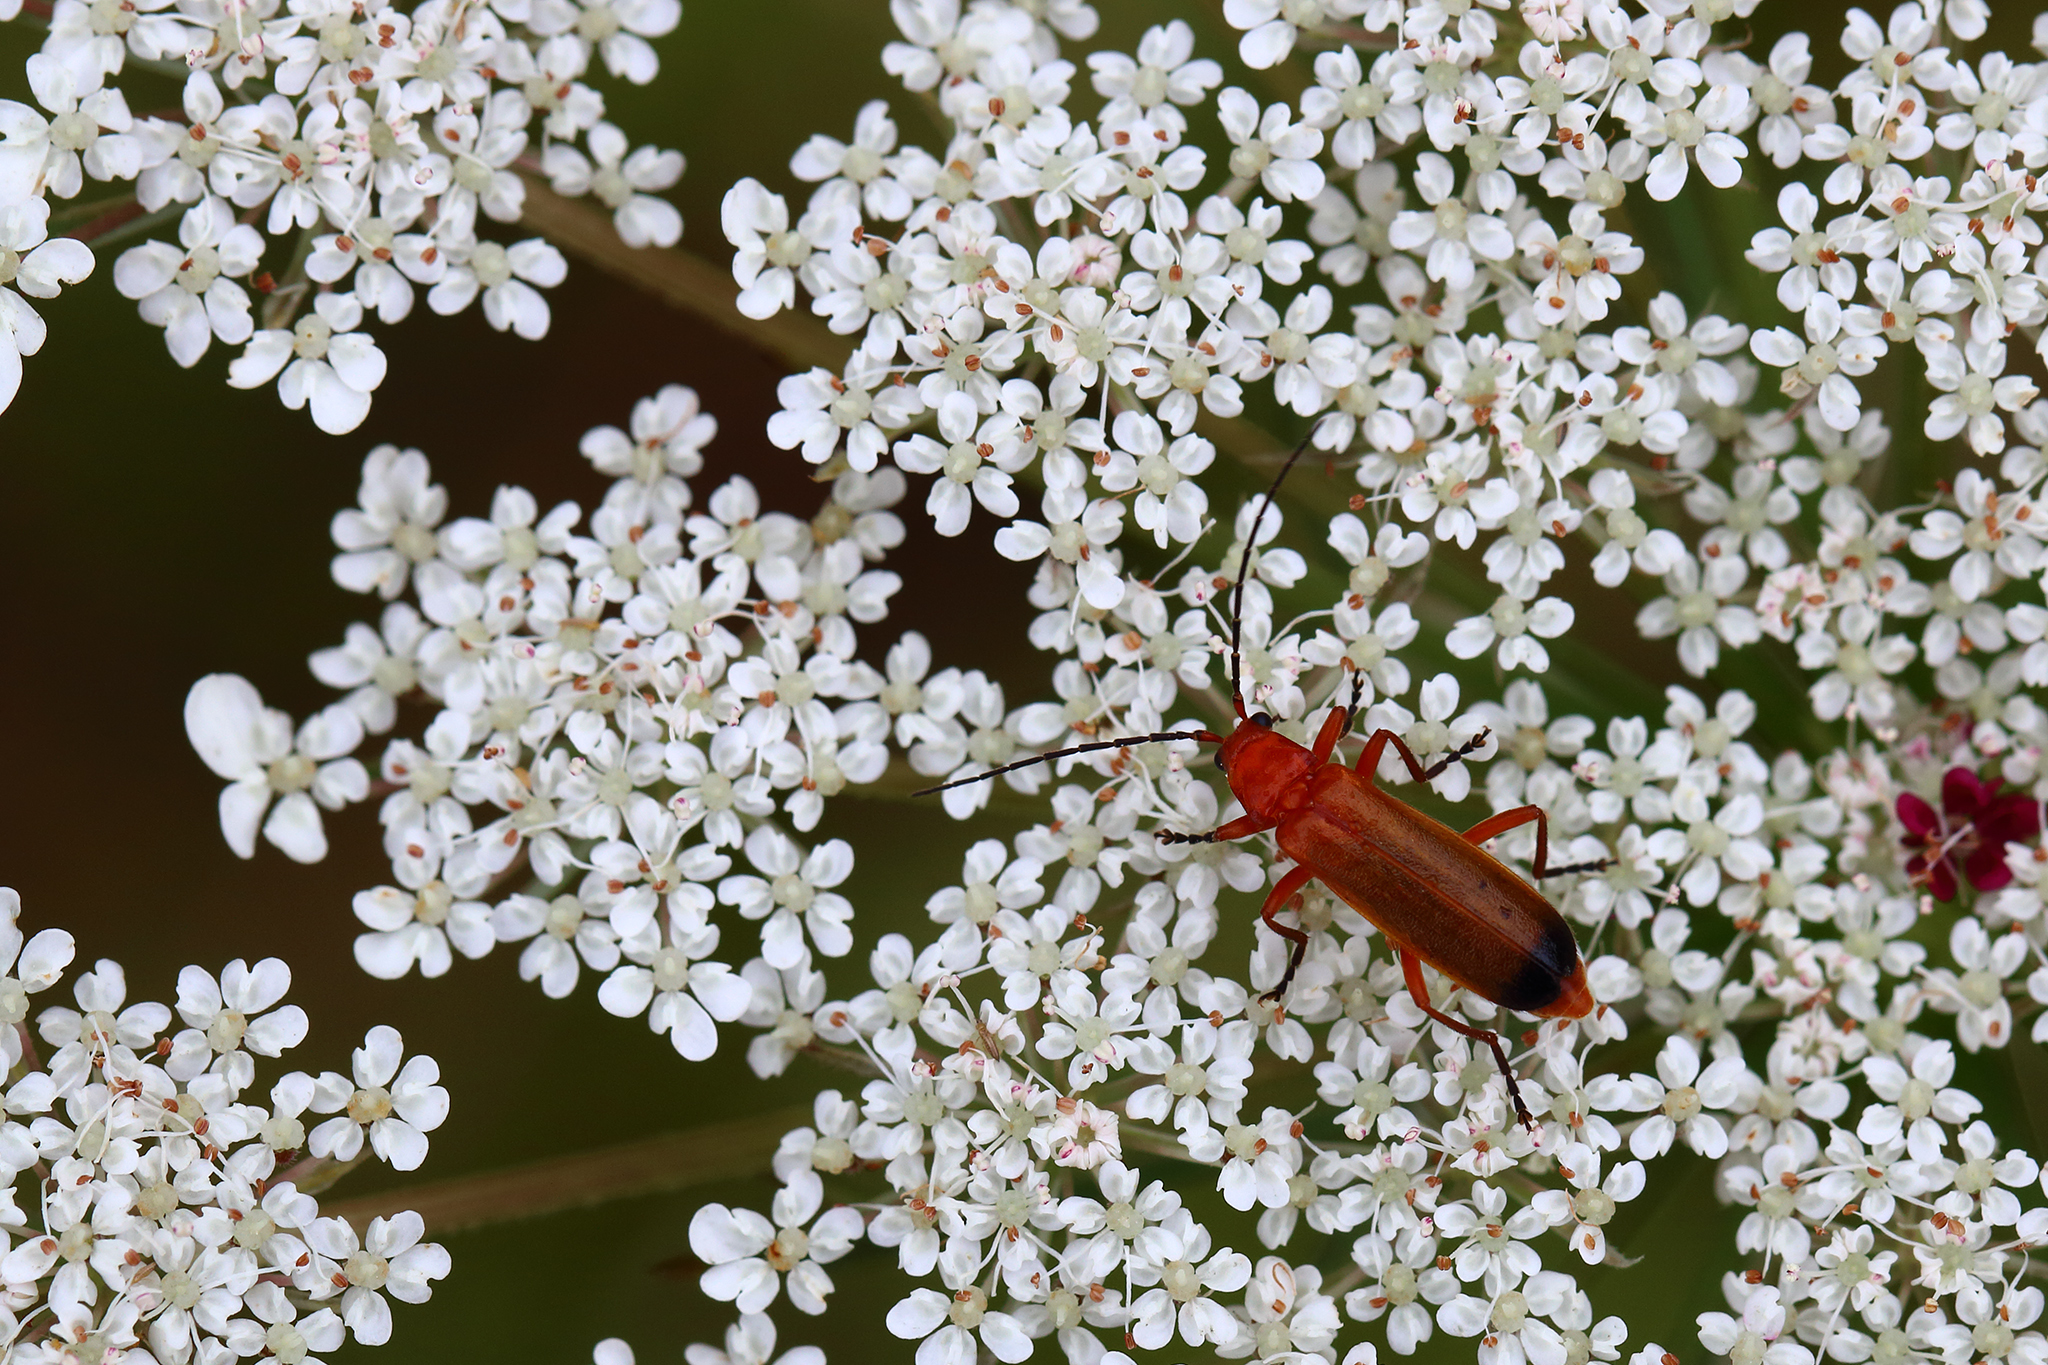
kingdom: Animalia
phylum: Arthropoda
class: Insecta
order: Coleoptera
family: Cantharidae
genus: Rhagonycha
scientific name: Rhagonycha fulva
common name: Common red soldier beetle
